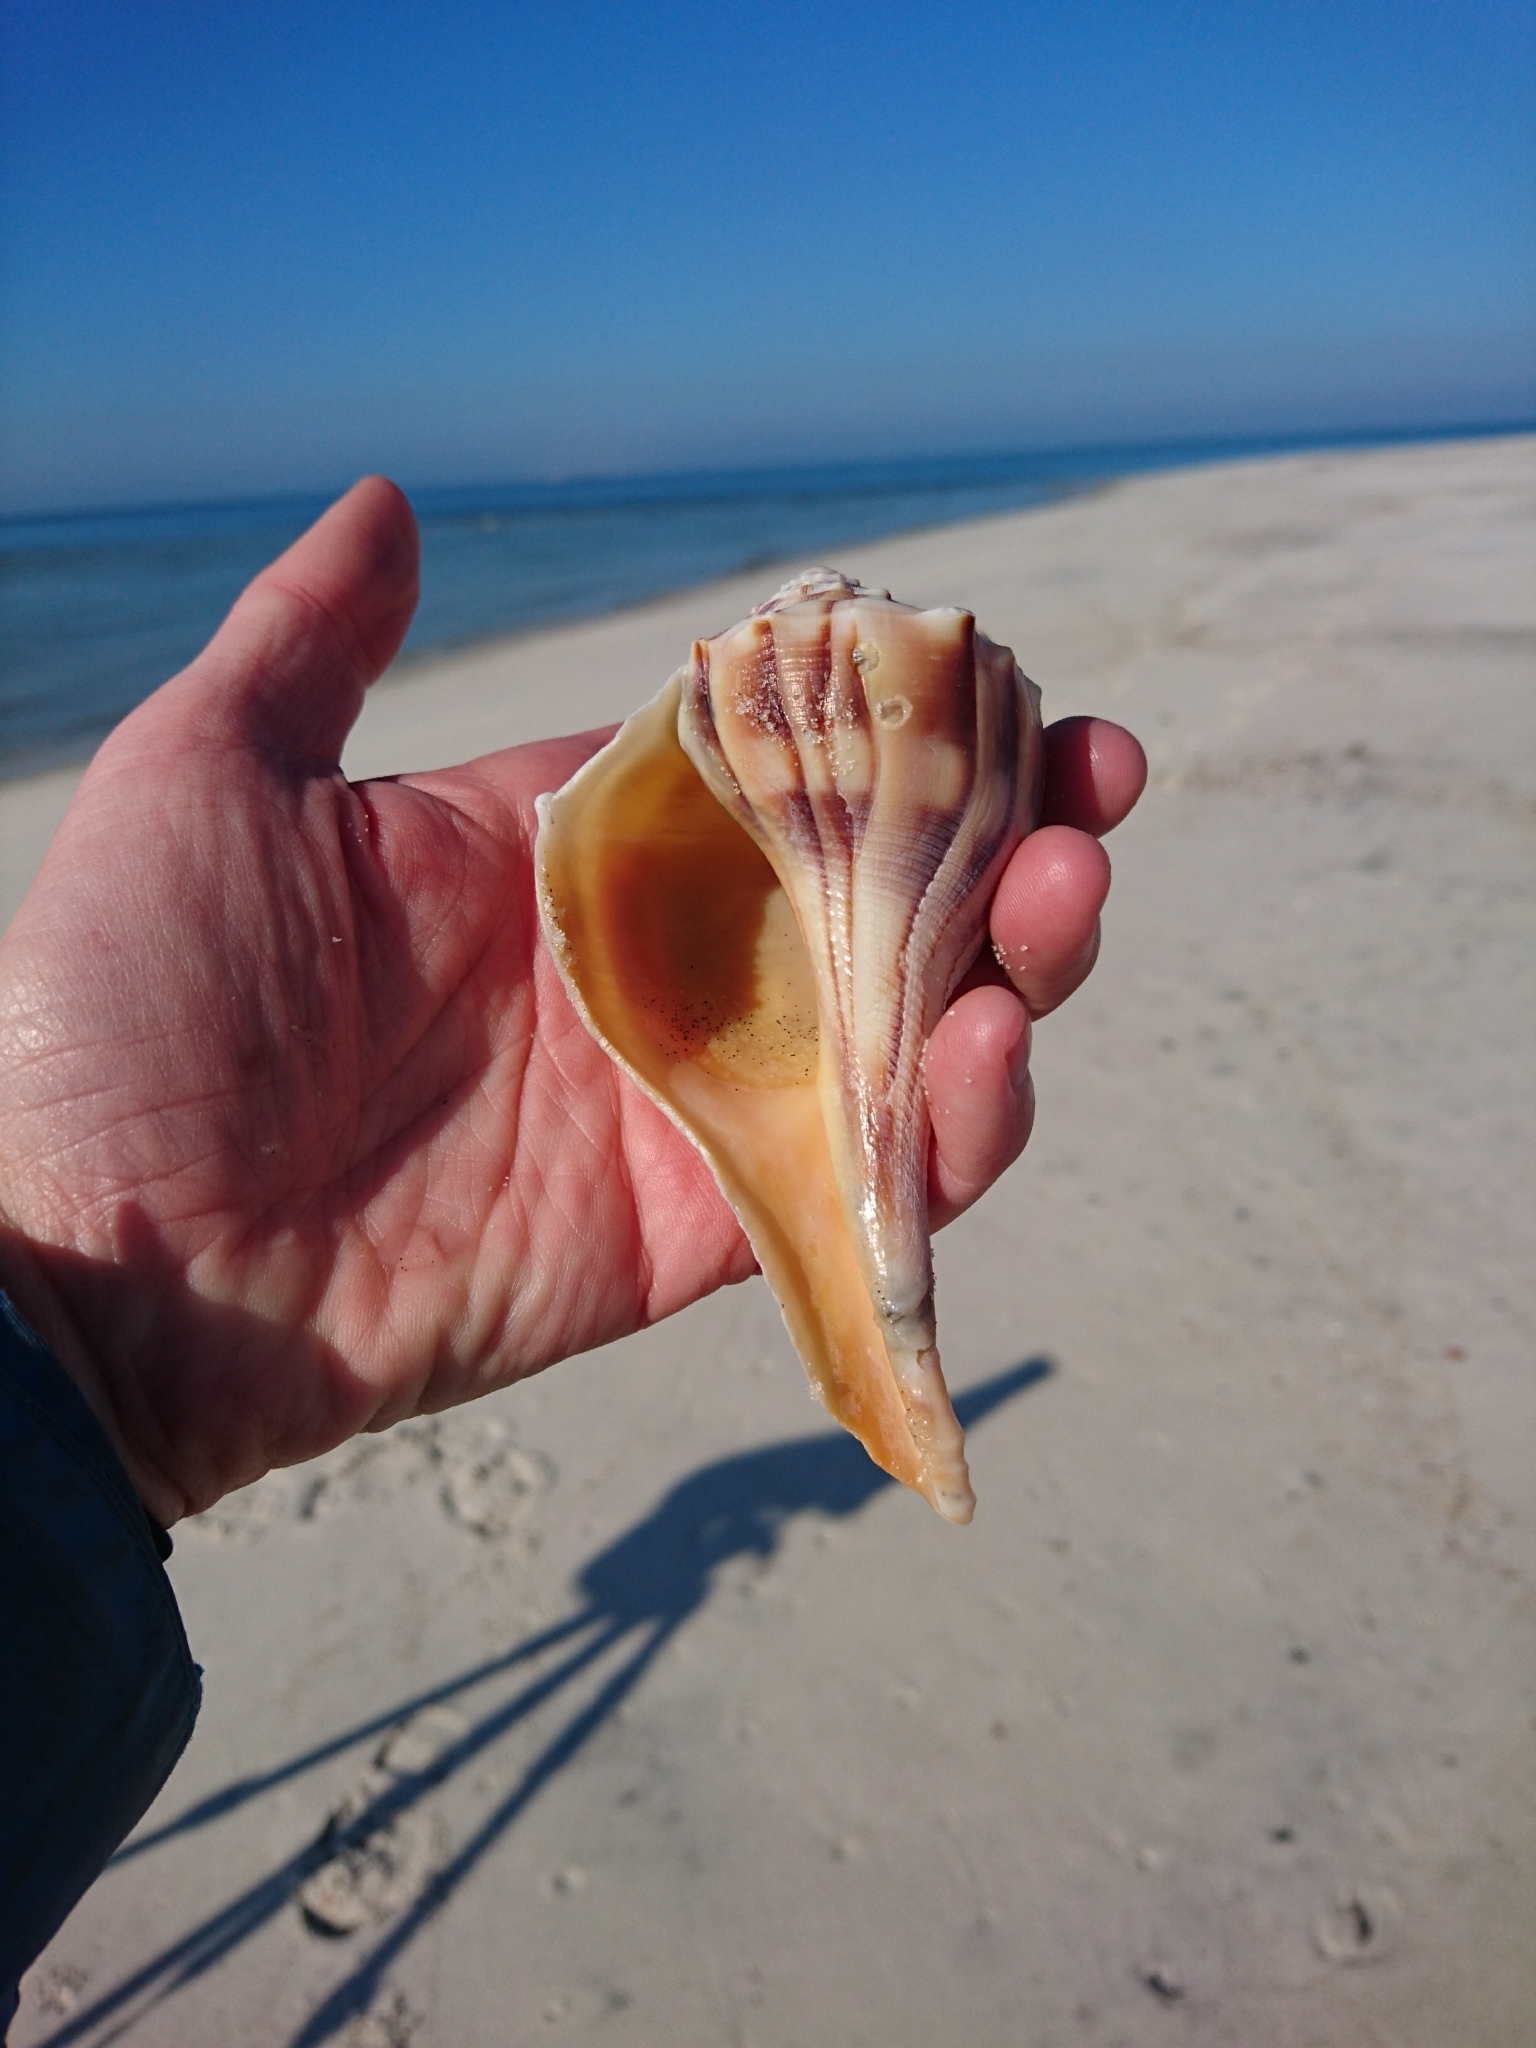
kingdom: Animalia
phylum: Mollusca
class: Gastropoda
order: Neogastropoda
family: Busyconidae
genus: Sinistrofulgur
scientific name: Sinistrofulgur sinistrum
